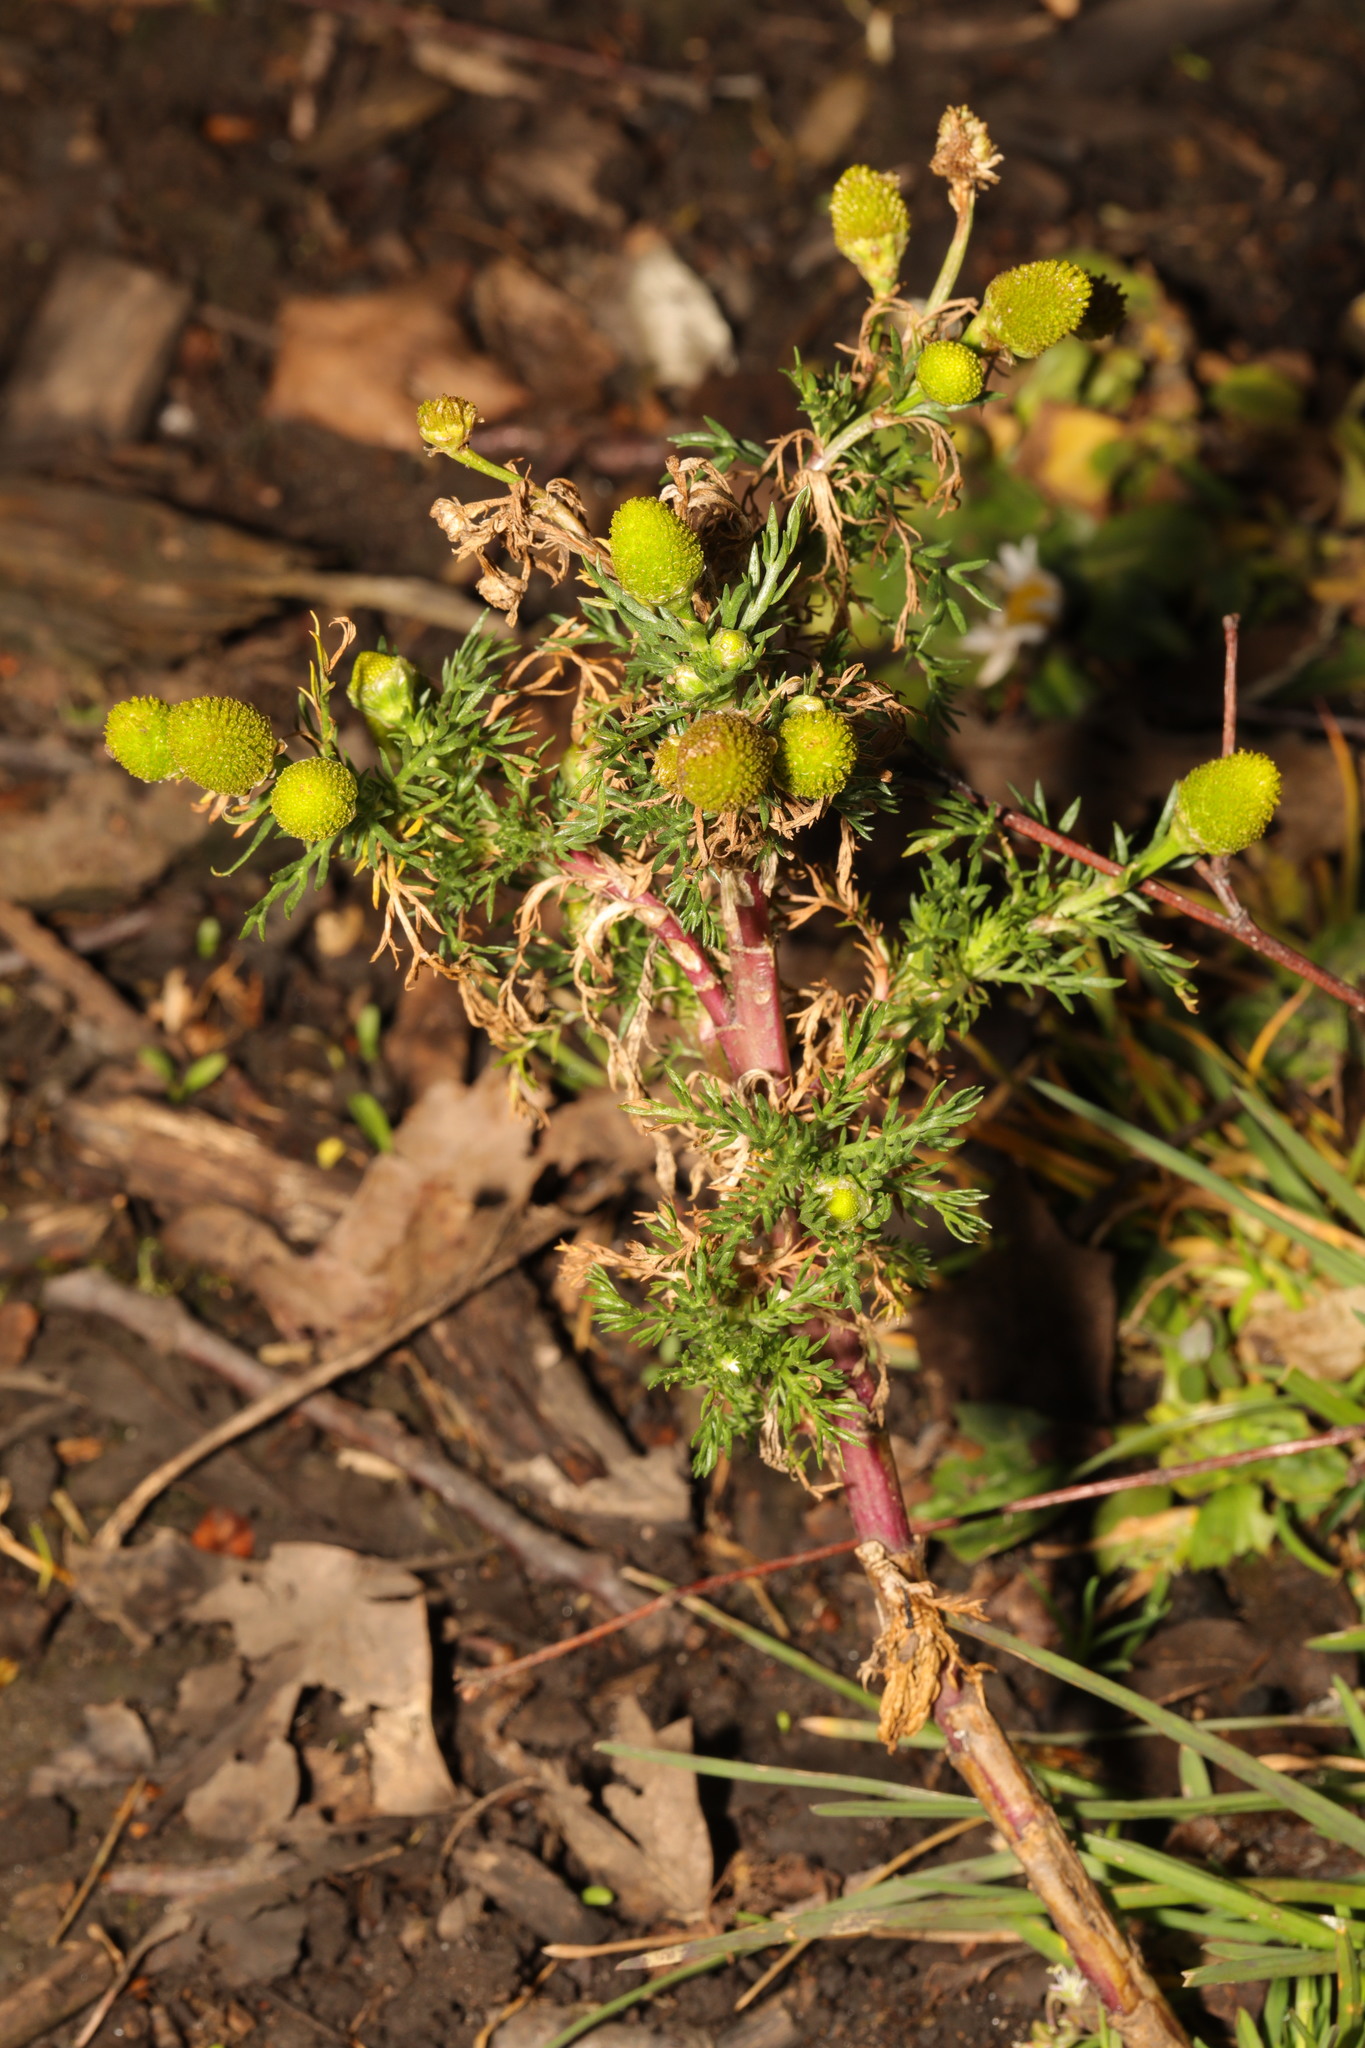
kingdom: Plantae
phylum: Tracheophyta
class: Magnoliopsida
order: Asterales
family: Asteraceae
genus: Matricaria
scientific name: Matricaria discoidea
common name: Disc mayweed
